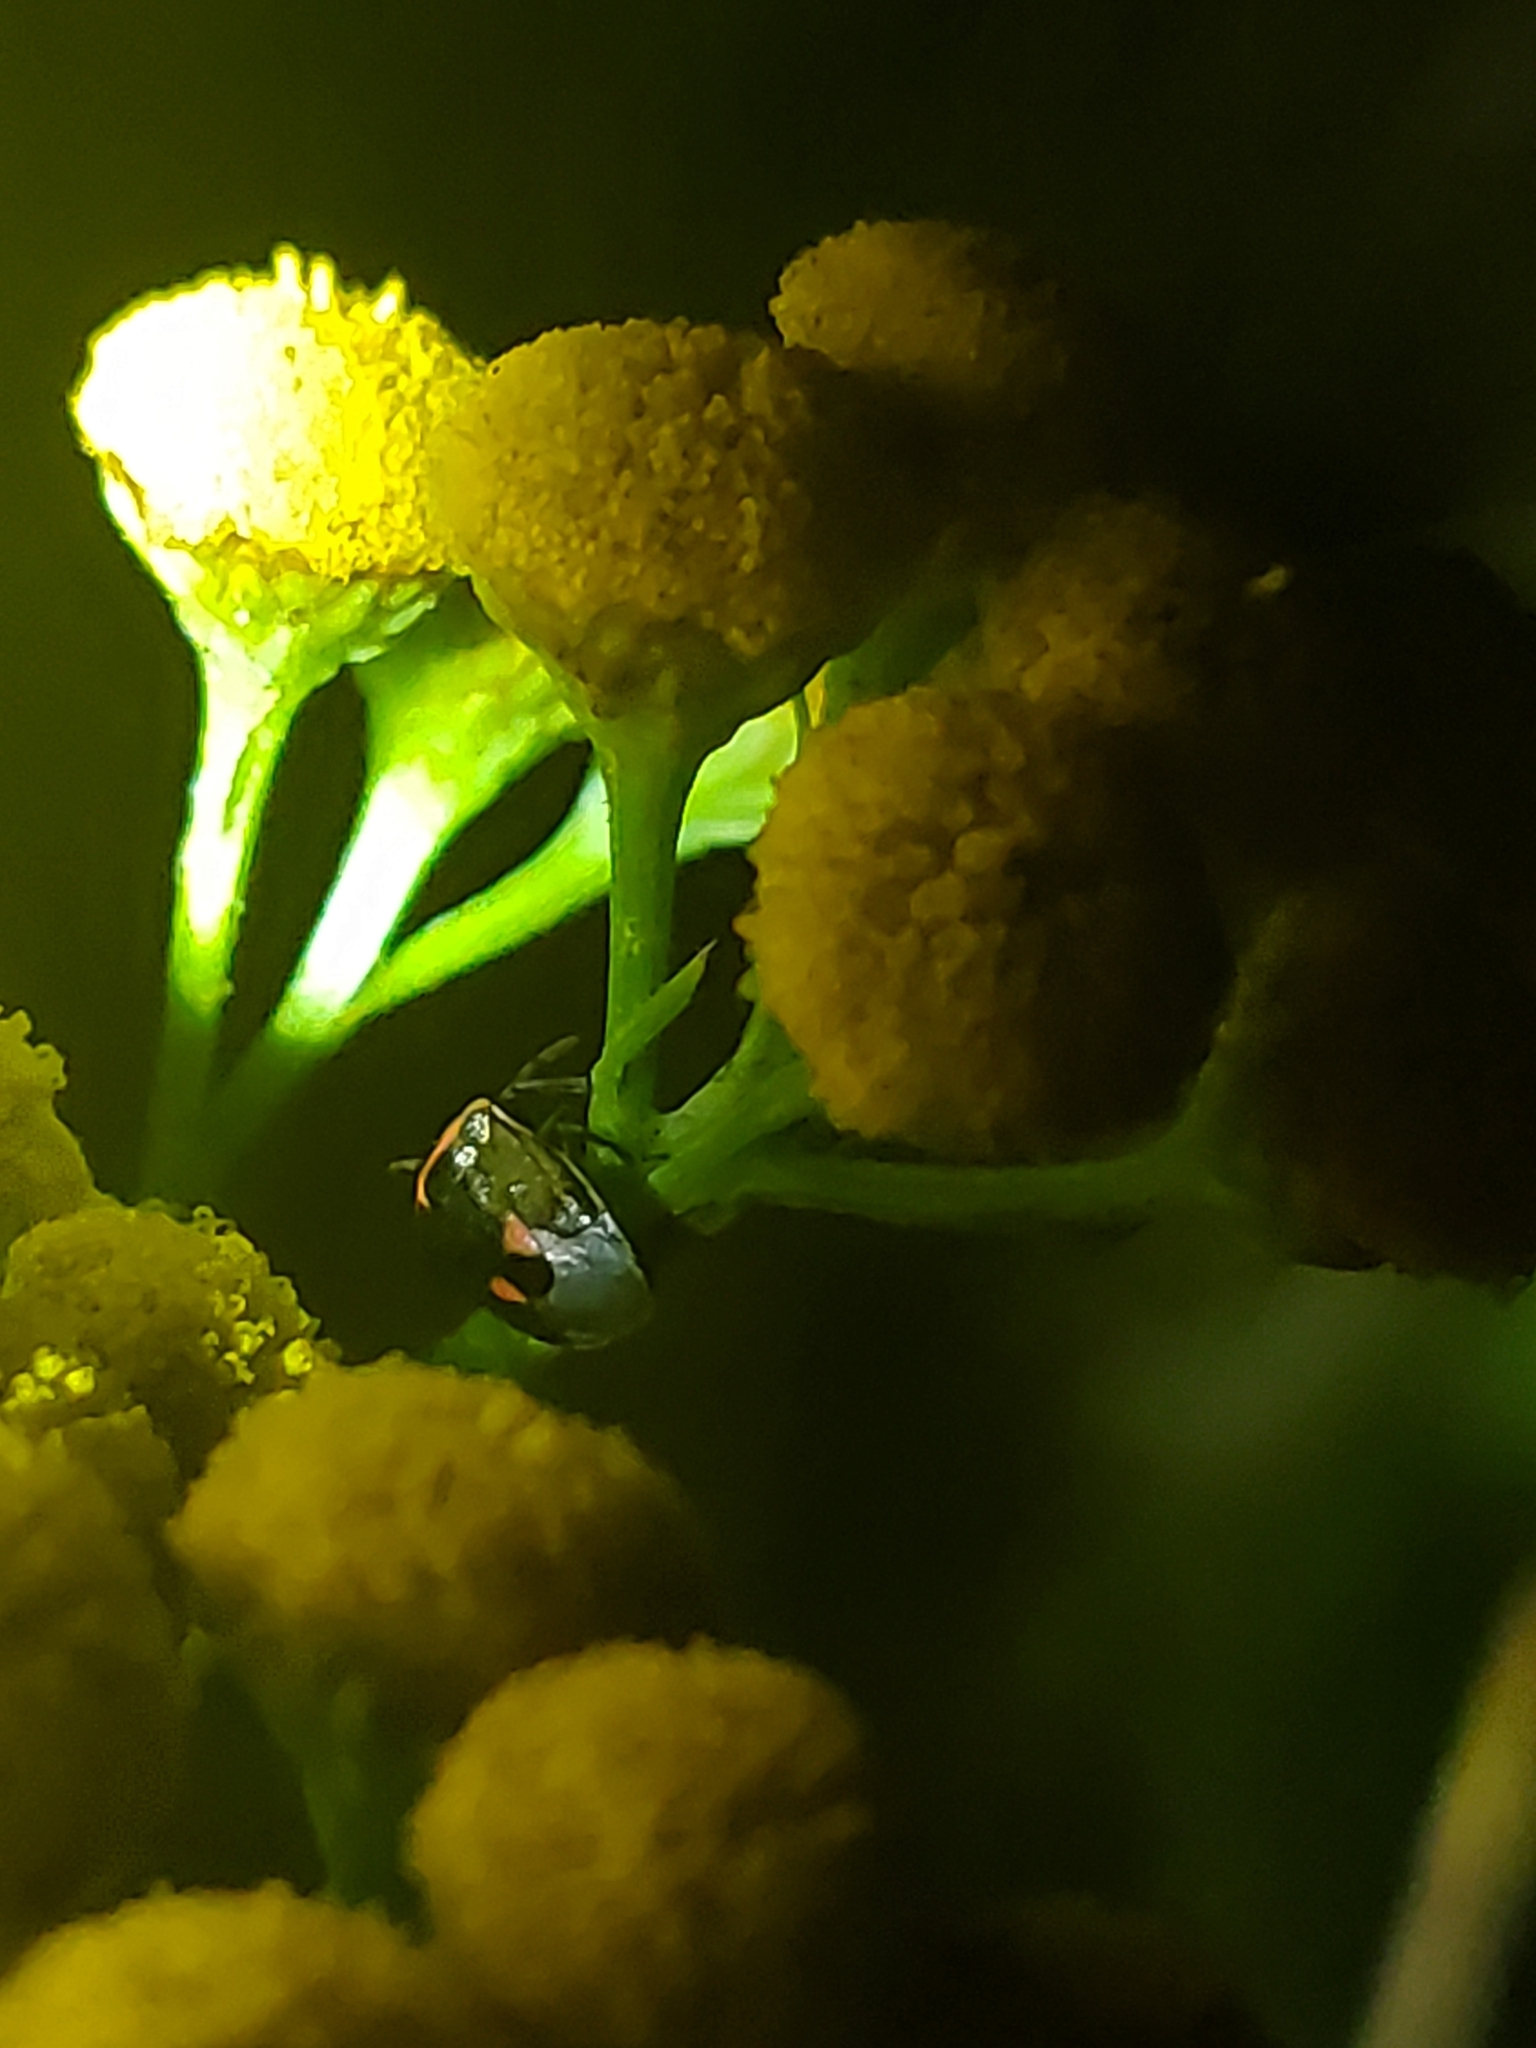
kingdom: Animalia
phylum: Arthropoda
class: Insecta
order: Hemiptera
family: Pentatomidae
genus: Cosmopepla
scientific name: Cosmopepla lintneriana
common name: Twice-stabbed stink bug
